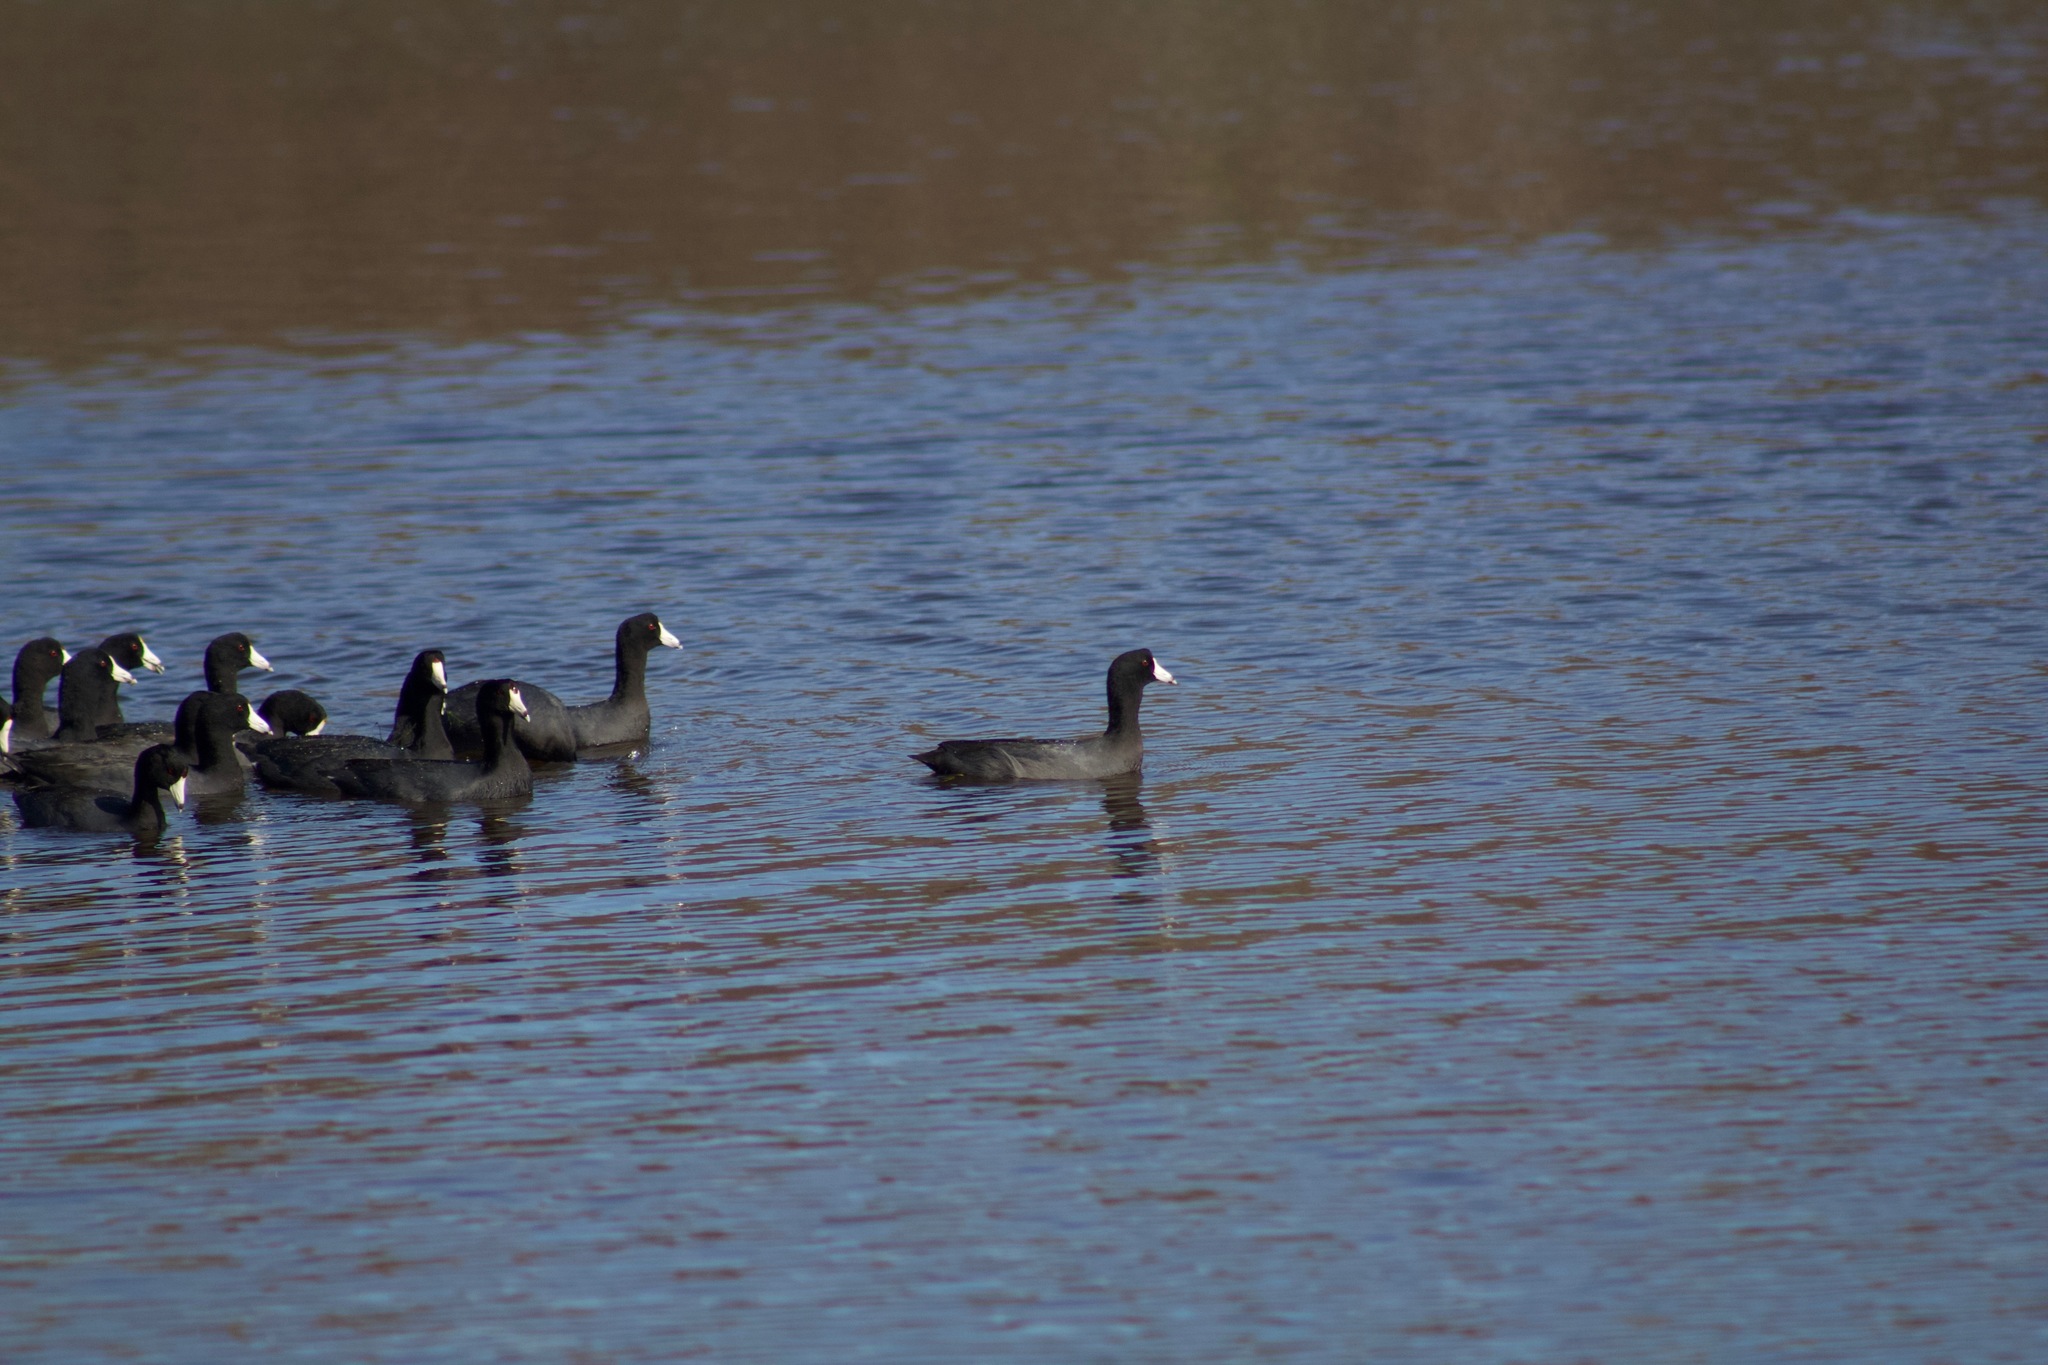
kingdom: Animalia
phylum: Chordata
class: Aves
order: Gruiformes
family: Rallidae
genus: Fulica
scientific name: Fulica americana
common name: American coot
